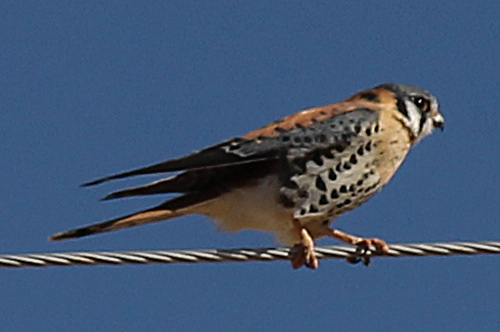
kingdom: Animalia
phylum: Chordata
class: Aves
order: Falconiformes
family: Falconidae
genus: Falco
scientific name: Falco sparverius
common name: American kestrel
